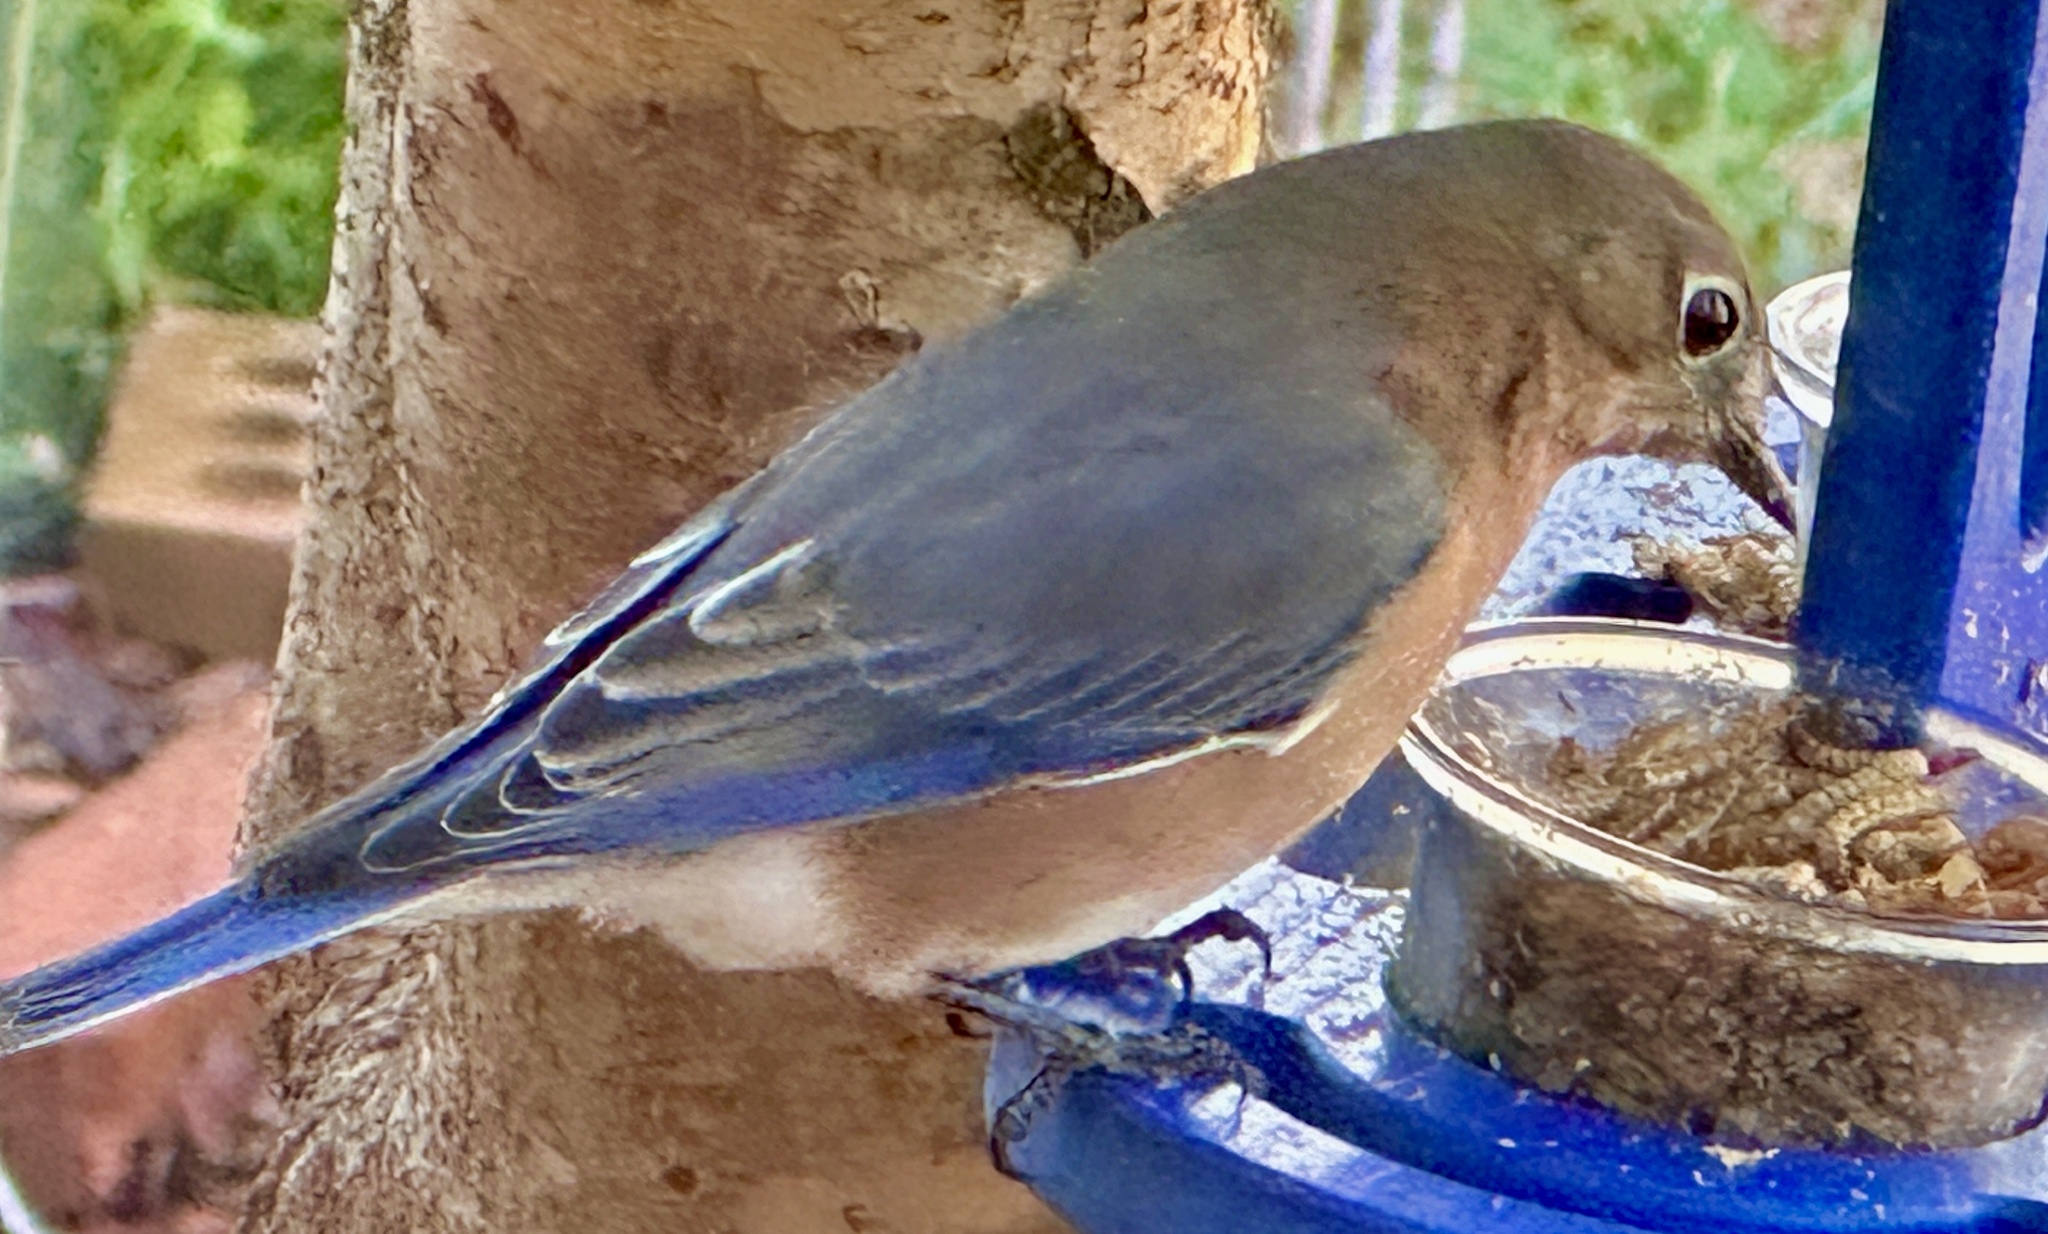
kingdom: Animalia
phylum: Chordata
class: Aves
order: Passeriformes
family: Turdidae
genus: Sialia
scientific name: Sialia sialis
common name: Eastern bluebird
